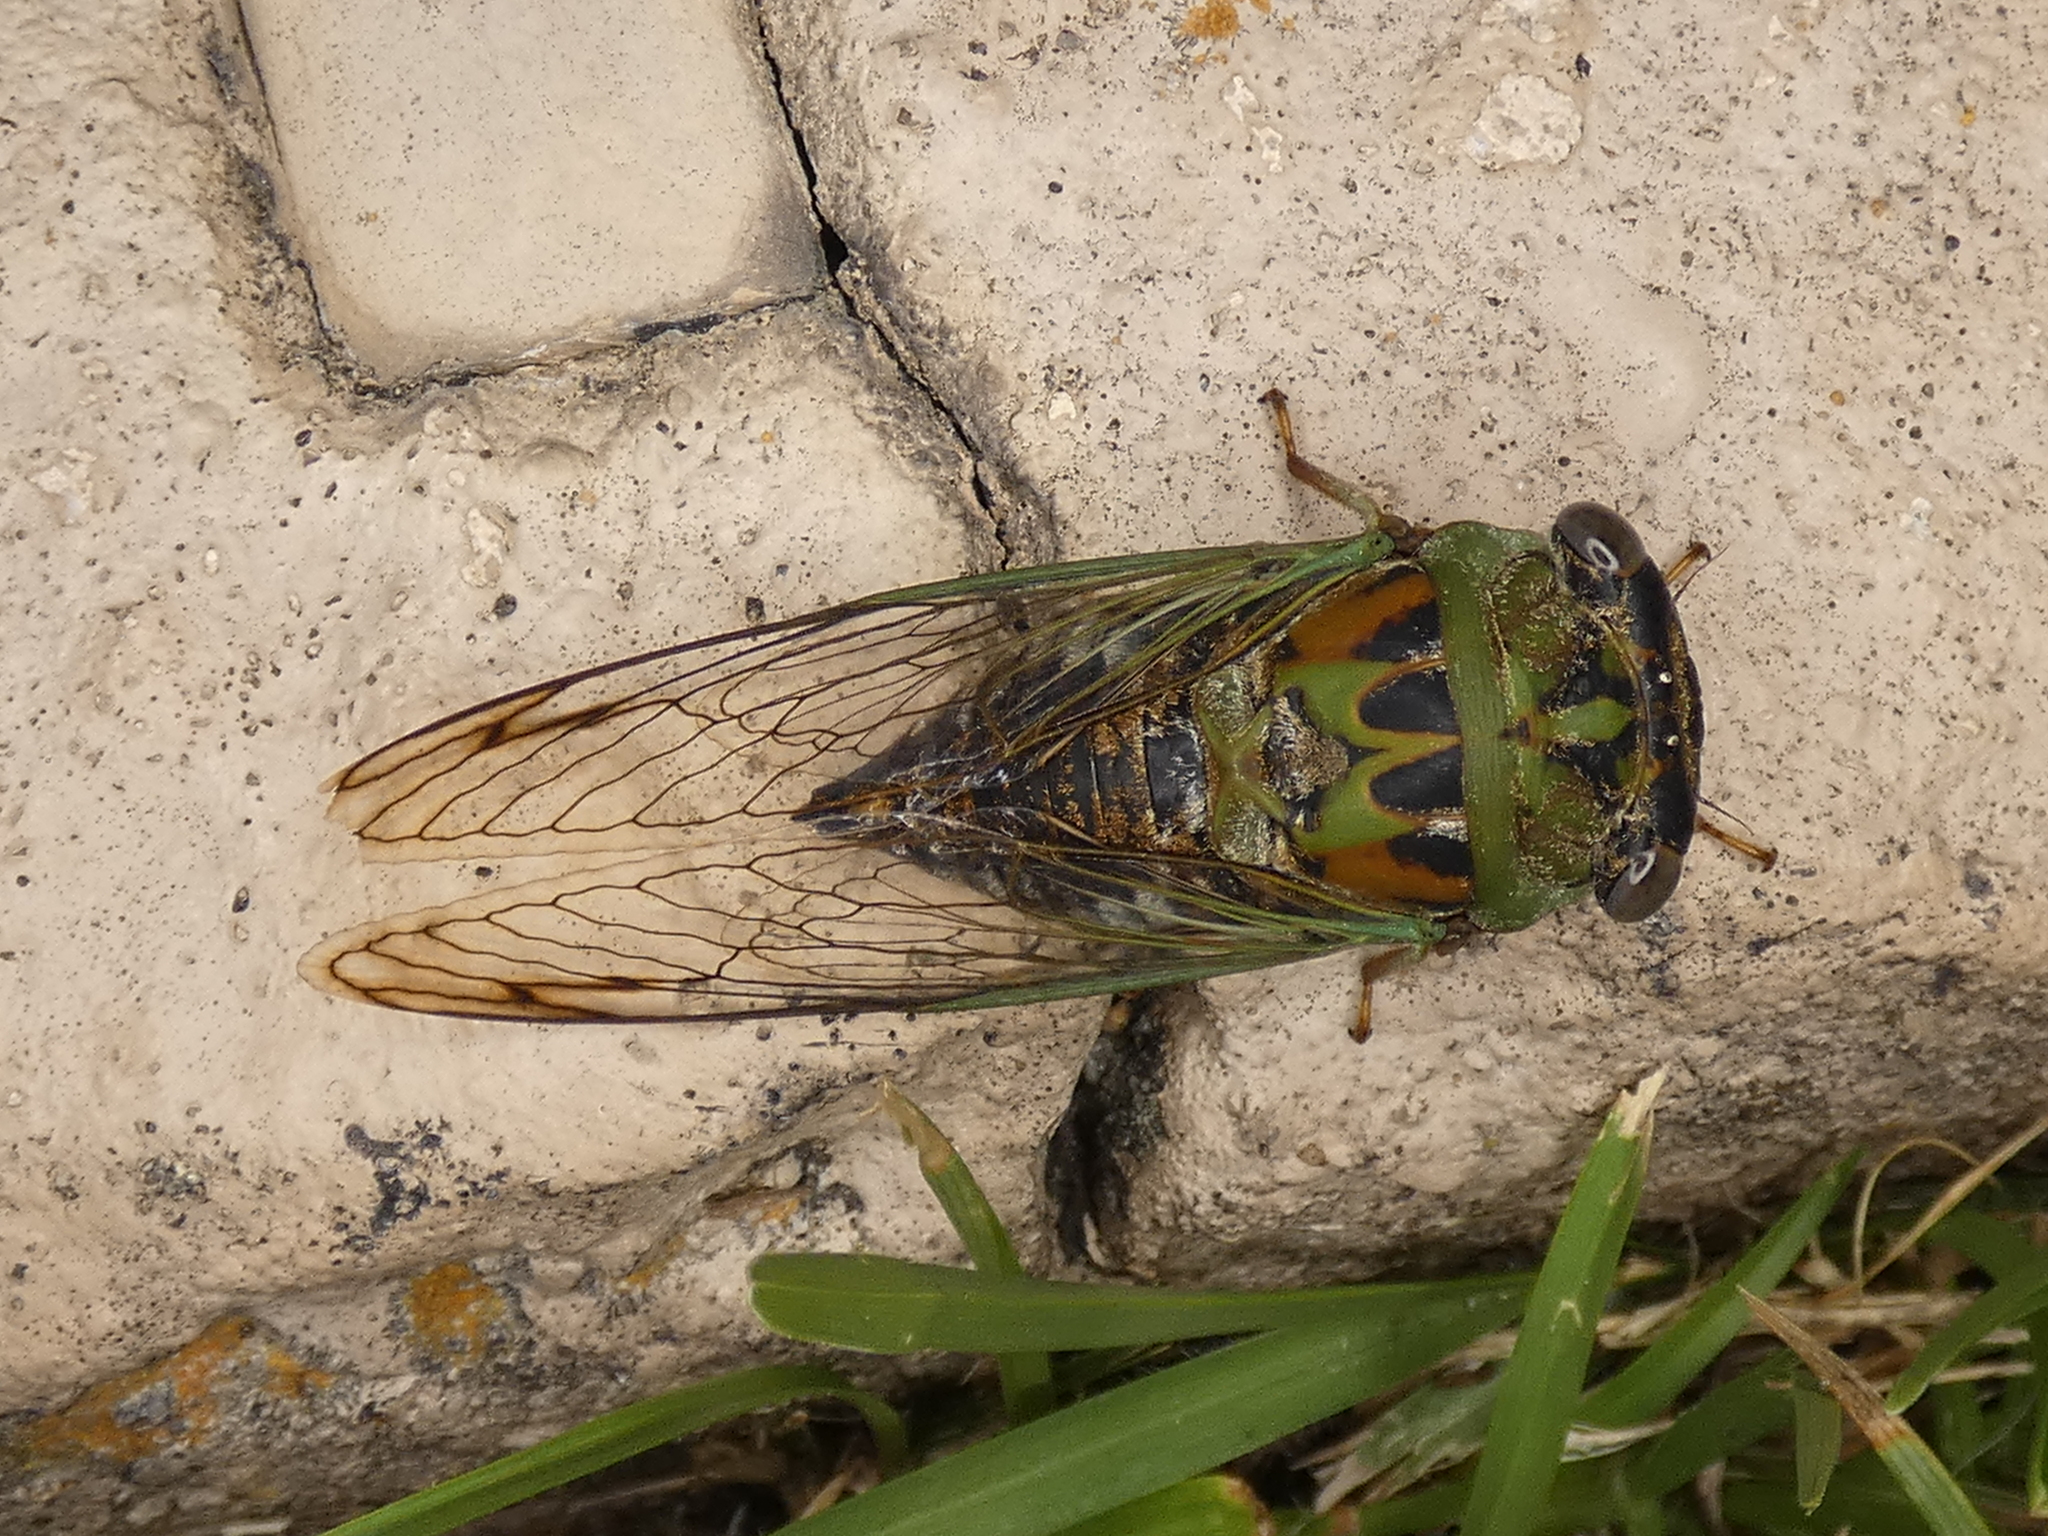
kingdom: Animalia
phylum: Arthropoda
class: Insecta
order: Hemiptera
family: Cicadidae
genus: Neotibicen
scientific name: Neotibicen davisi
